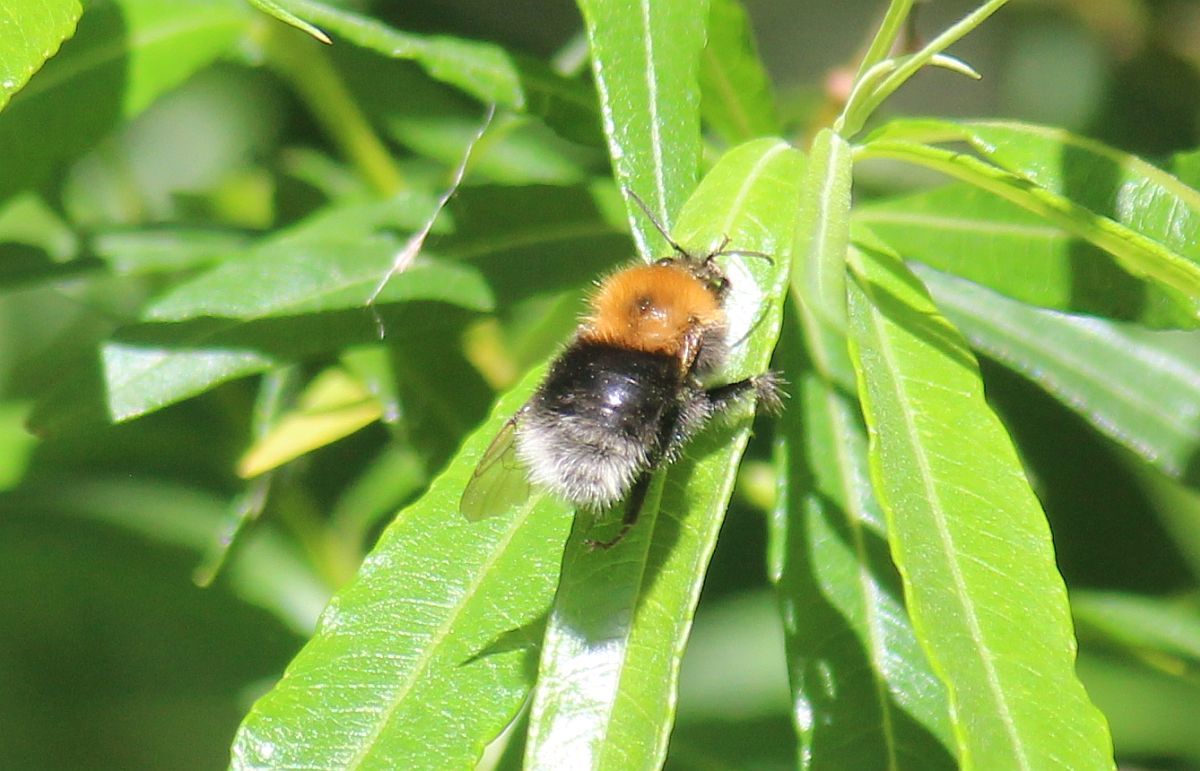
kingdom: Animalia
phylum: Arthropoda
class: Insecta
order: Hymenoptera
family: Apidae
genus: Bombus
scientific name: Bombus hypnorum
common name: New garden bumblebee
